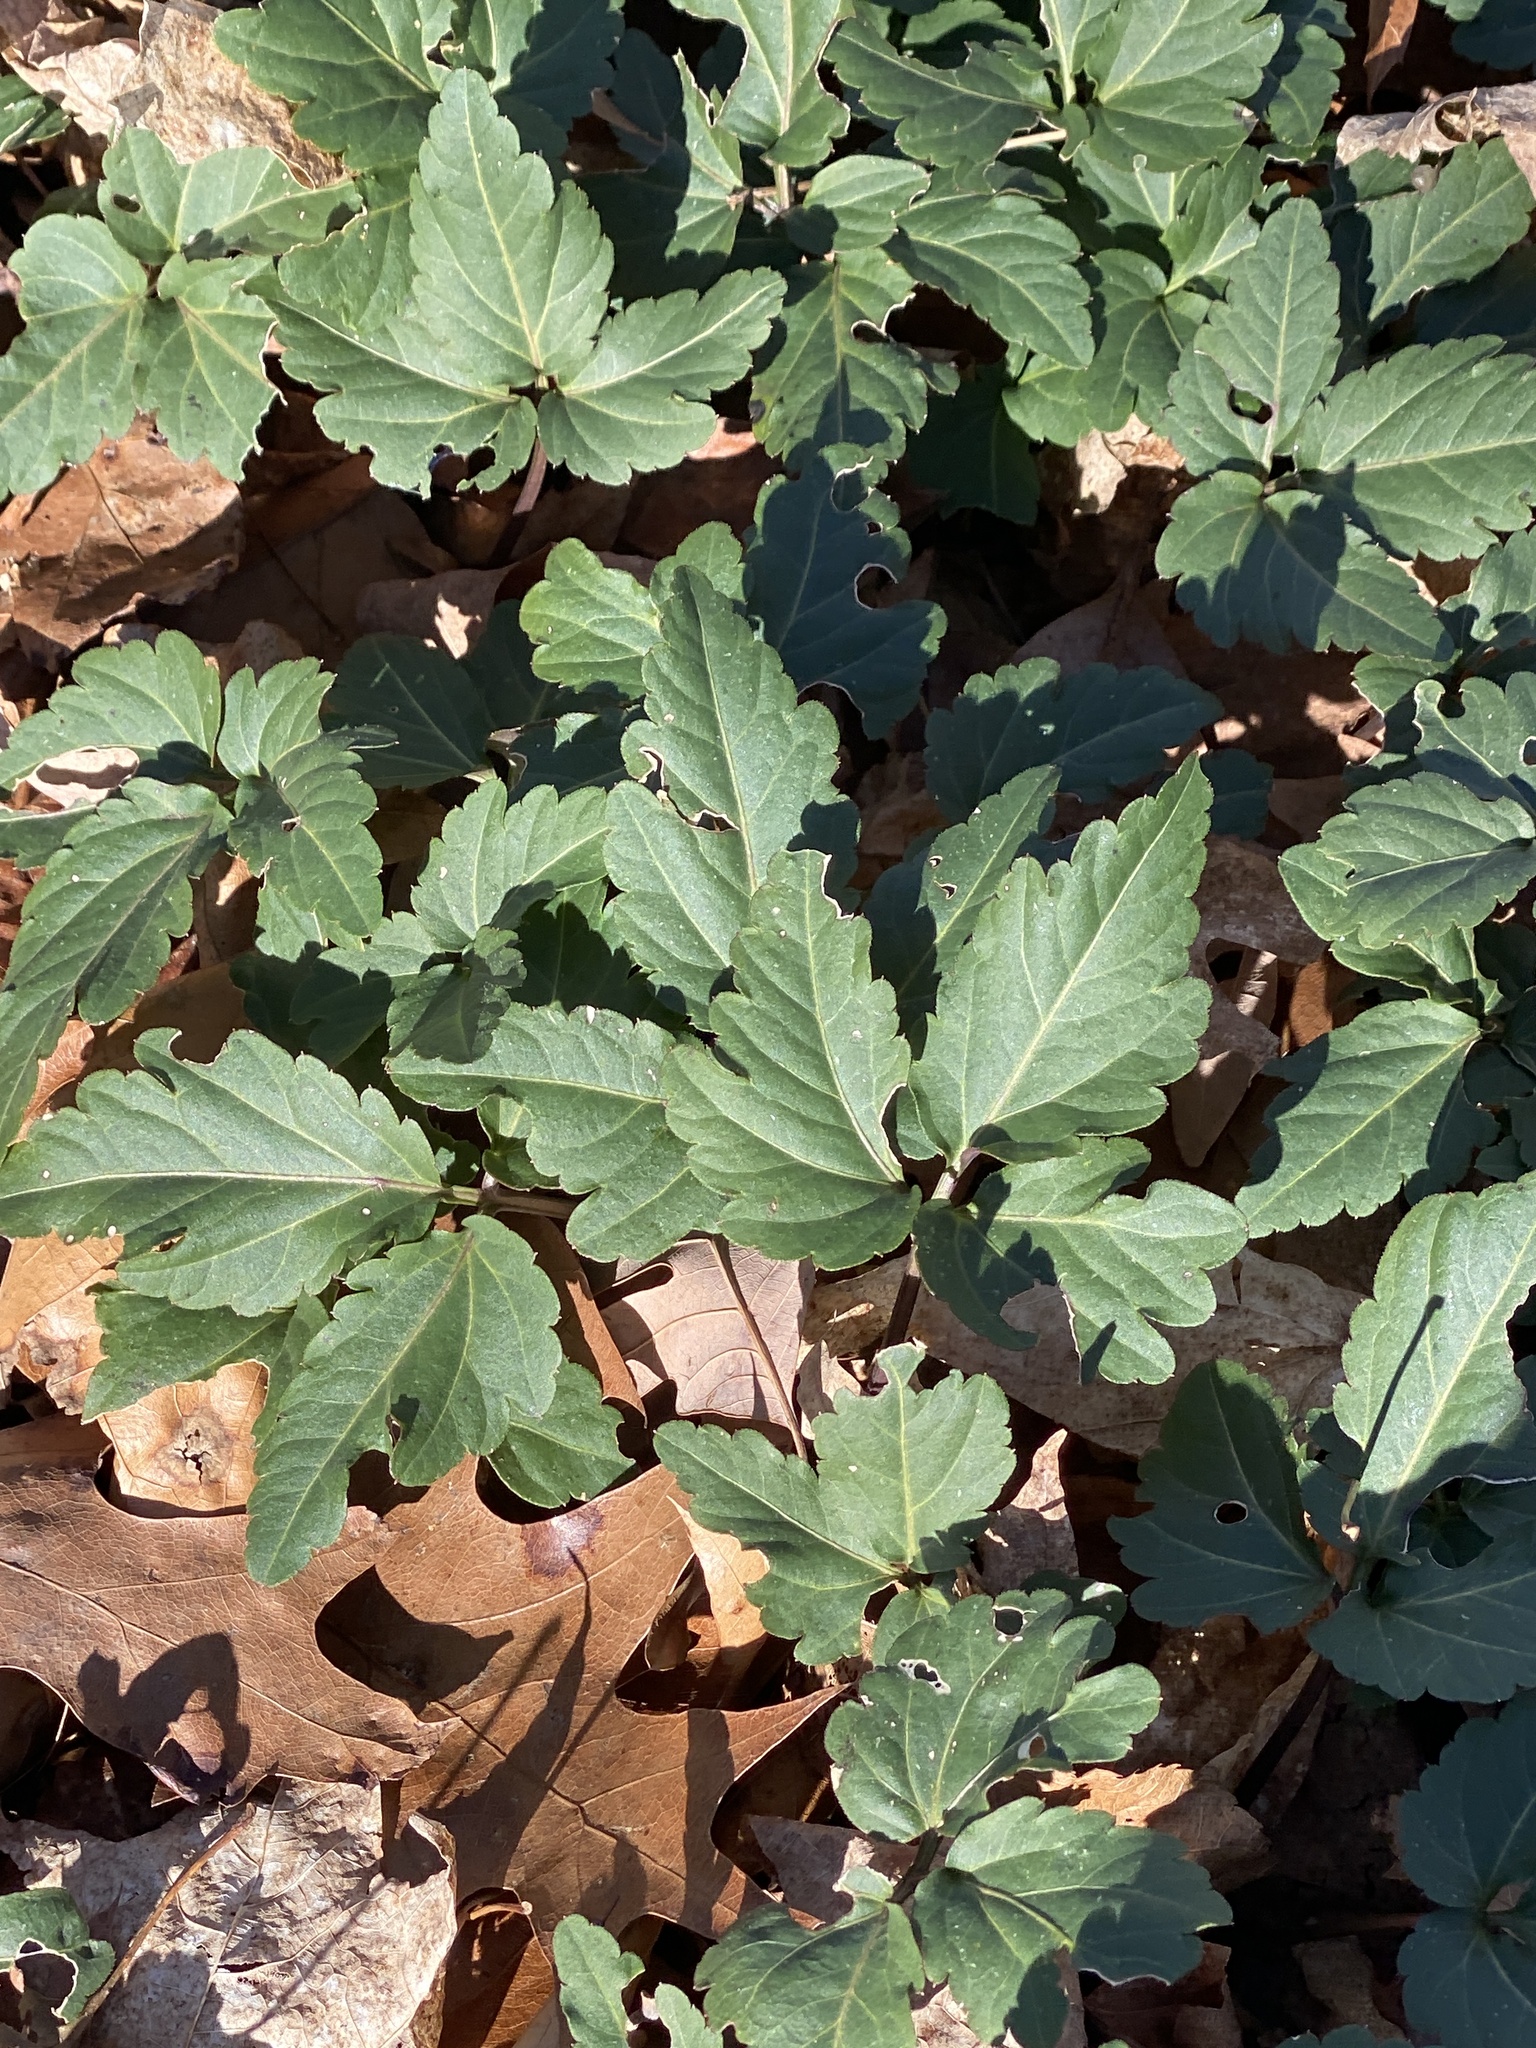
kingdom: Plantae
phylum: Tracheophyta
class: Magnoliopsida
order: Brassicales
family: Brassicaceae
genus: Cardamine
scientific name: Cardamine diphylla
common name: Broad-leaved toothwort
